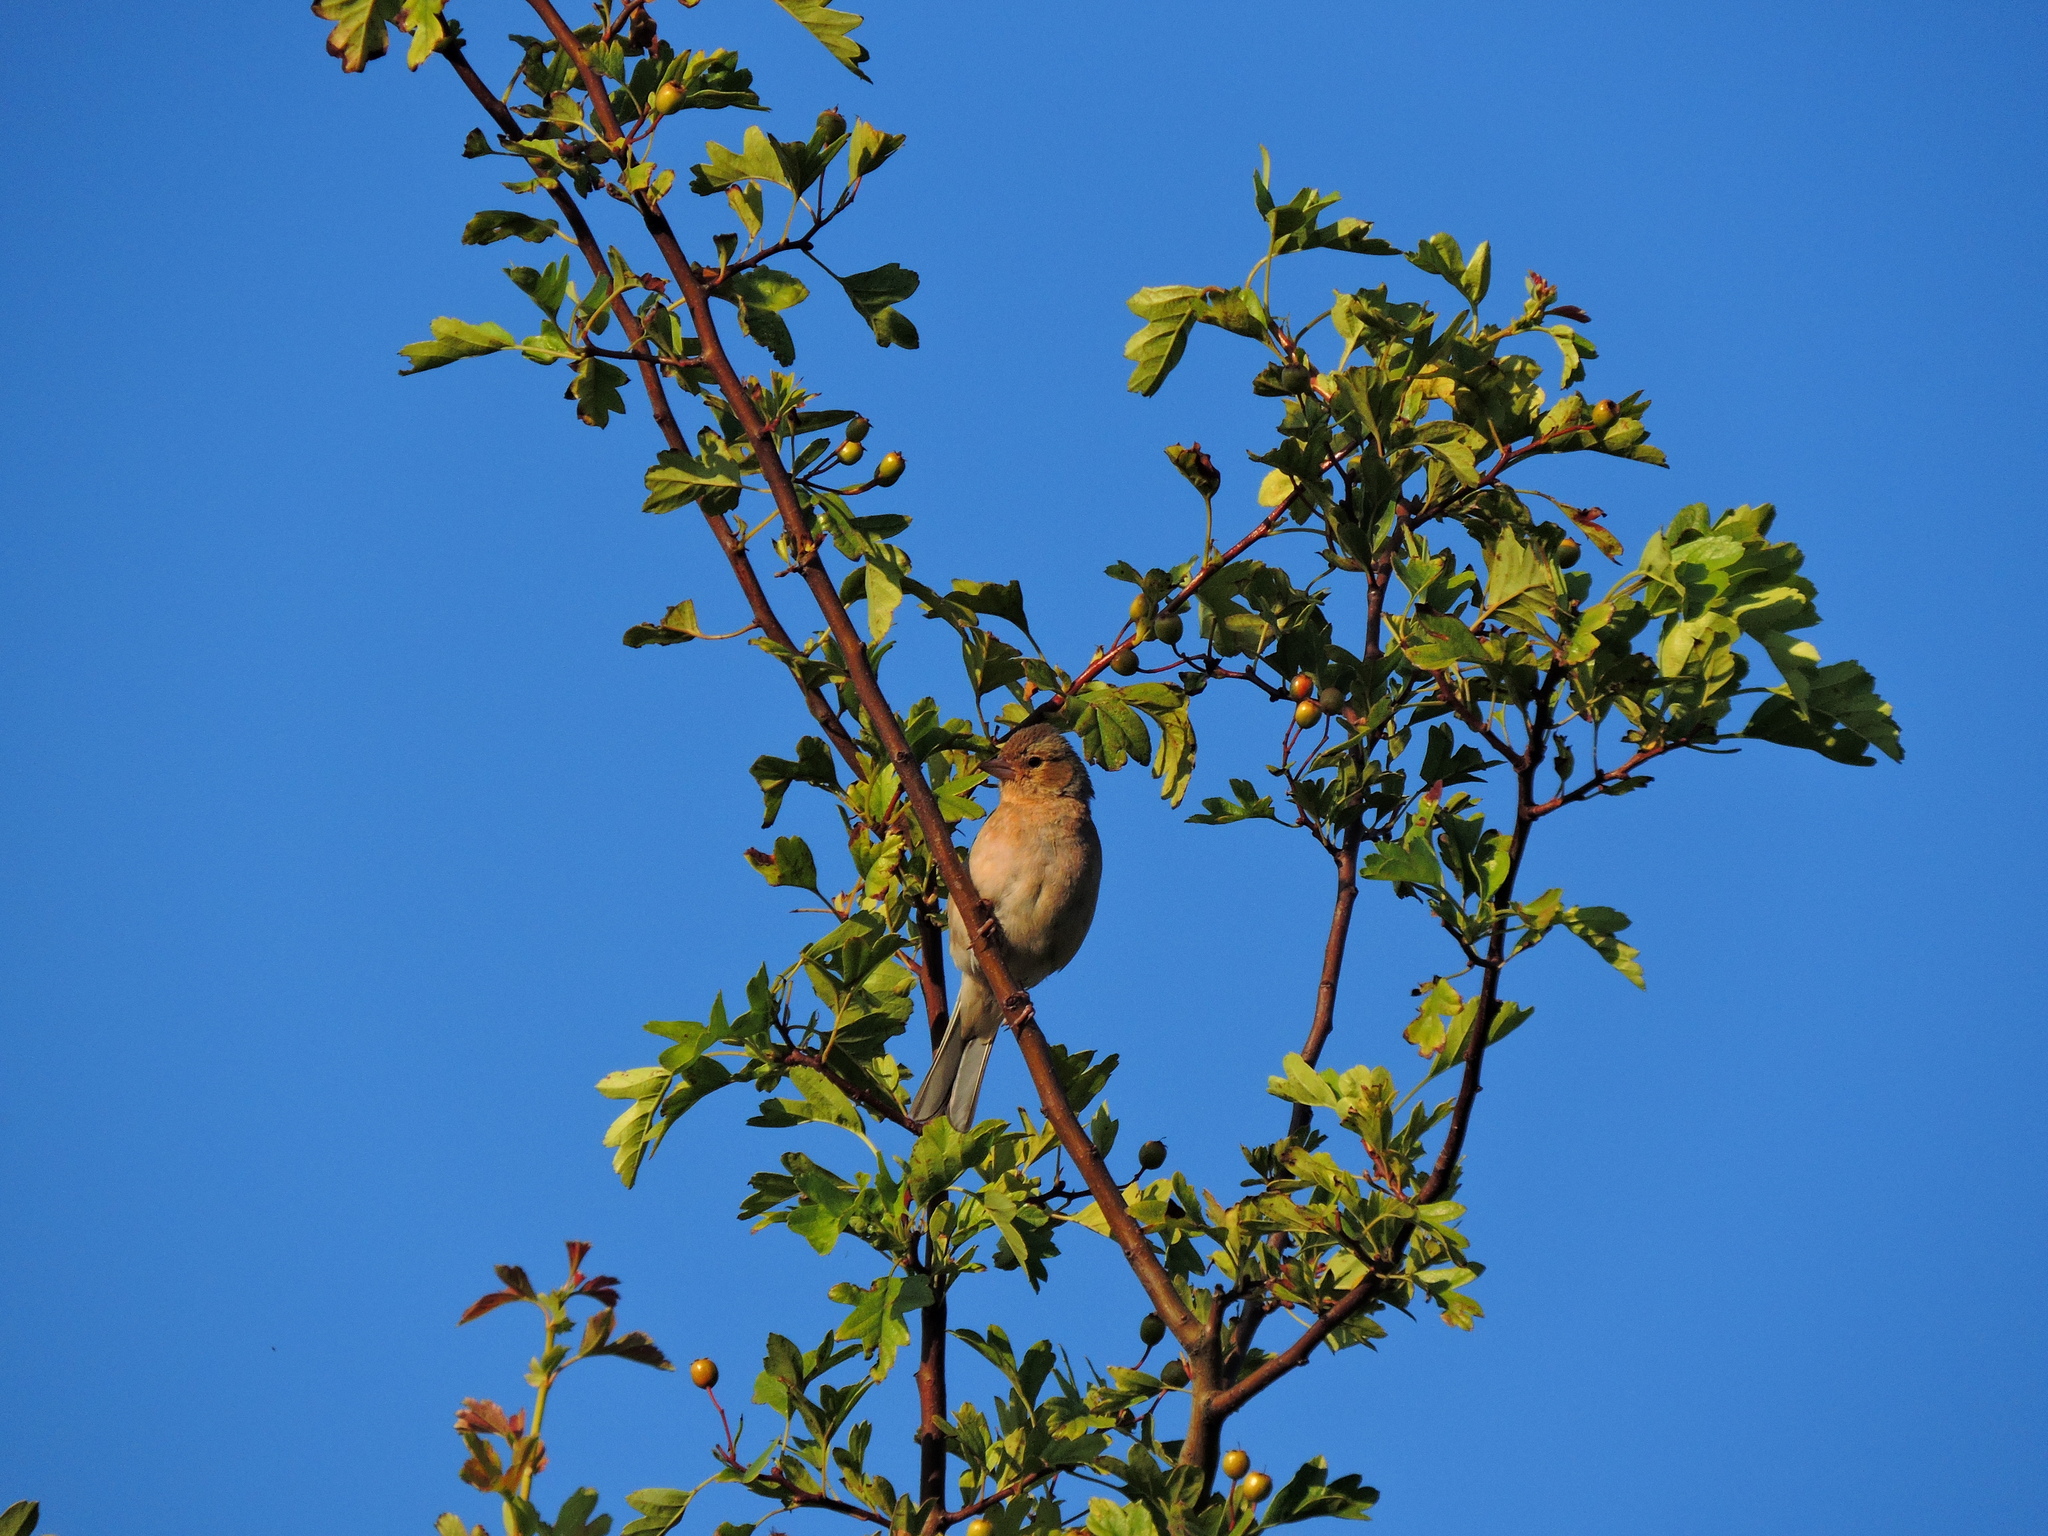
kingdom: Animalia
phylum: Chordata
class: Aves
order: Passeriformes
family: Fringillidae
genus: Fringilla
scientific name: Fringilla coelebs
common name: Common chaffinch
